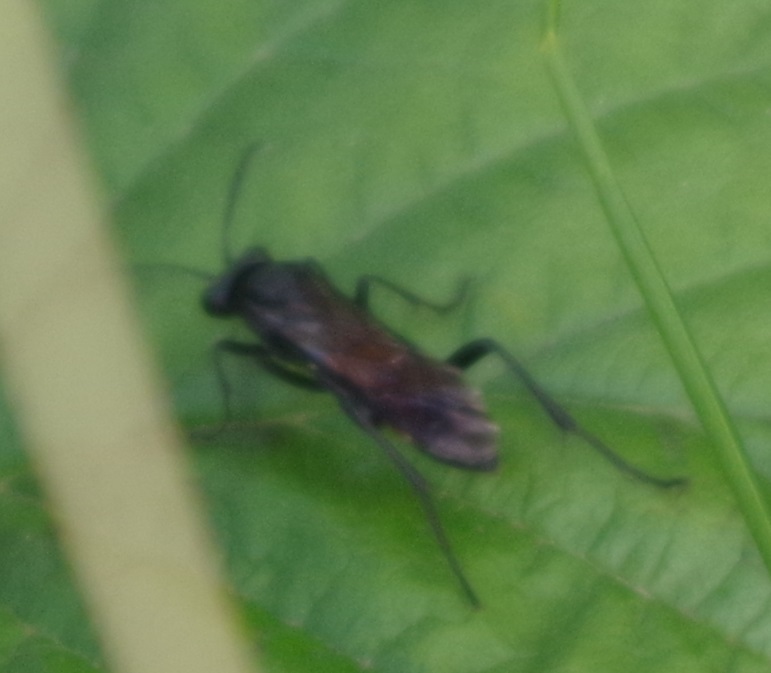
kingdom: Animalia
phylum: Arthropoda
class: Insecta
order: Hymenoptera
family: Tenthredinidae
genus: Macrophya
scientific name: Macrophya annulata
